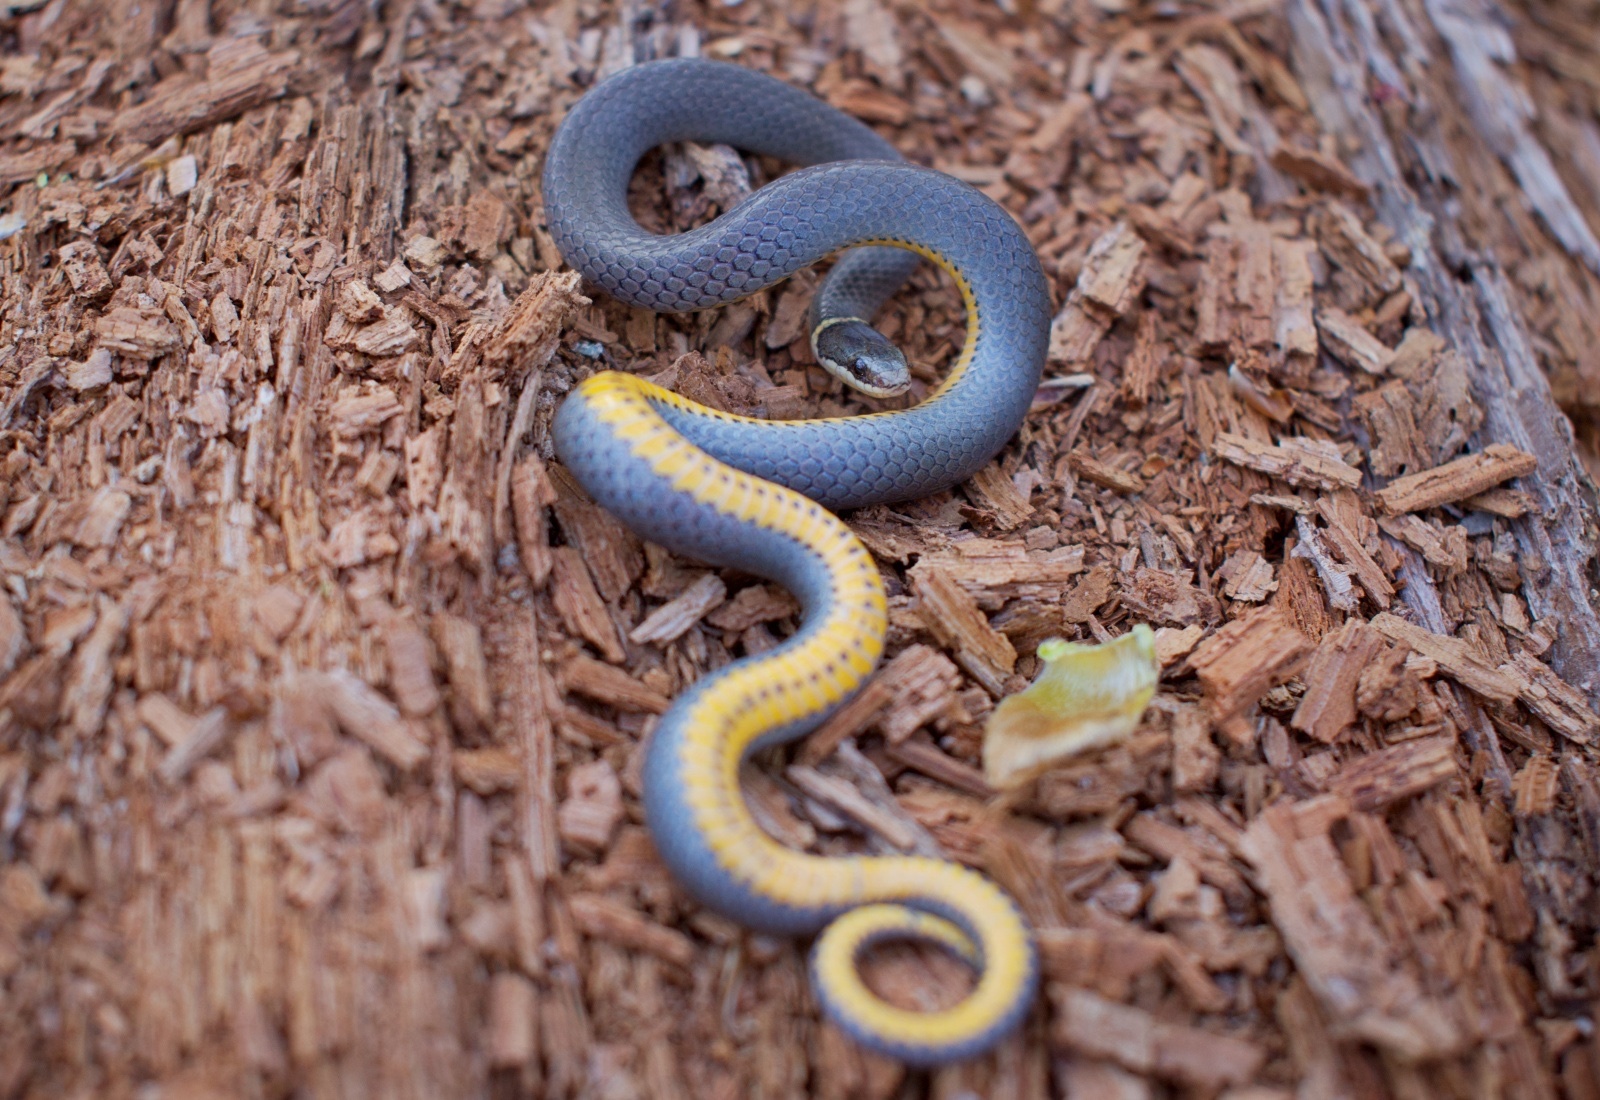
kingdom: Animalia
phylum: Chordata
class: Squamata
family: Colubridae
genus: Diadophis
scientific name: Diadophis punctatus
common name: Ringneck snake
